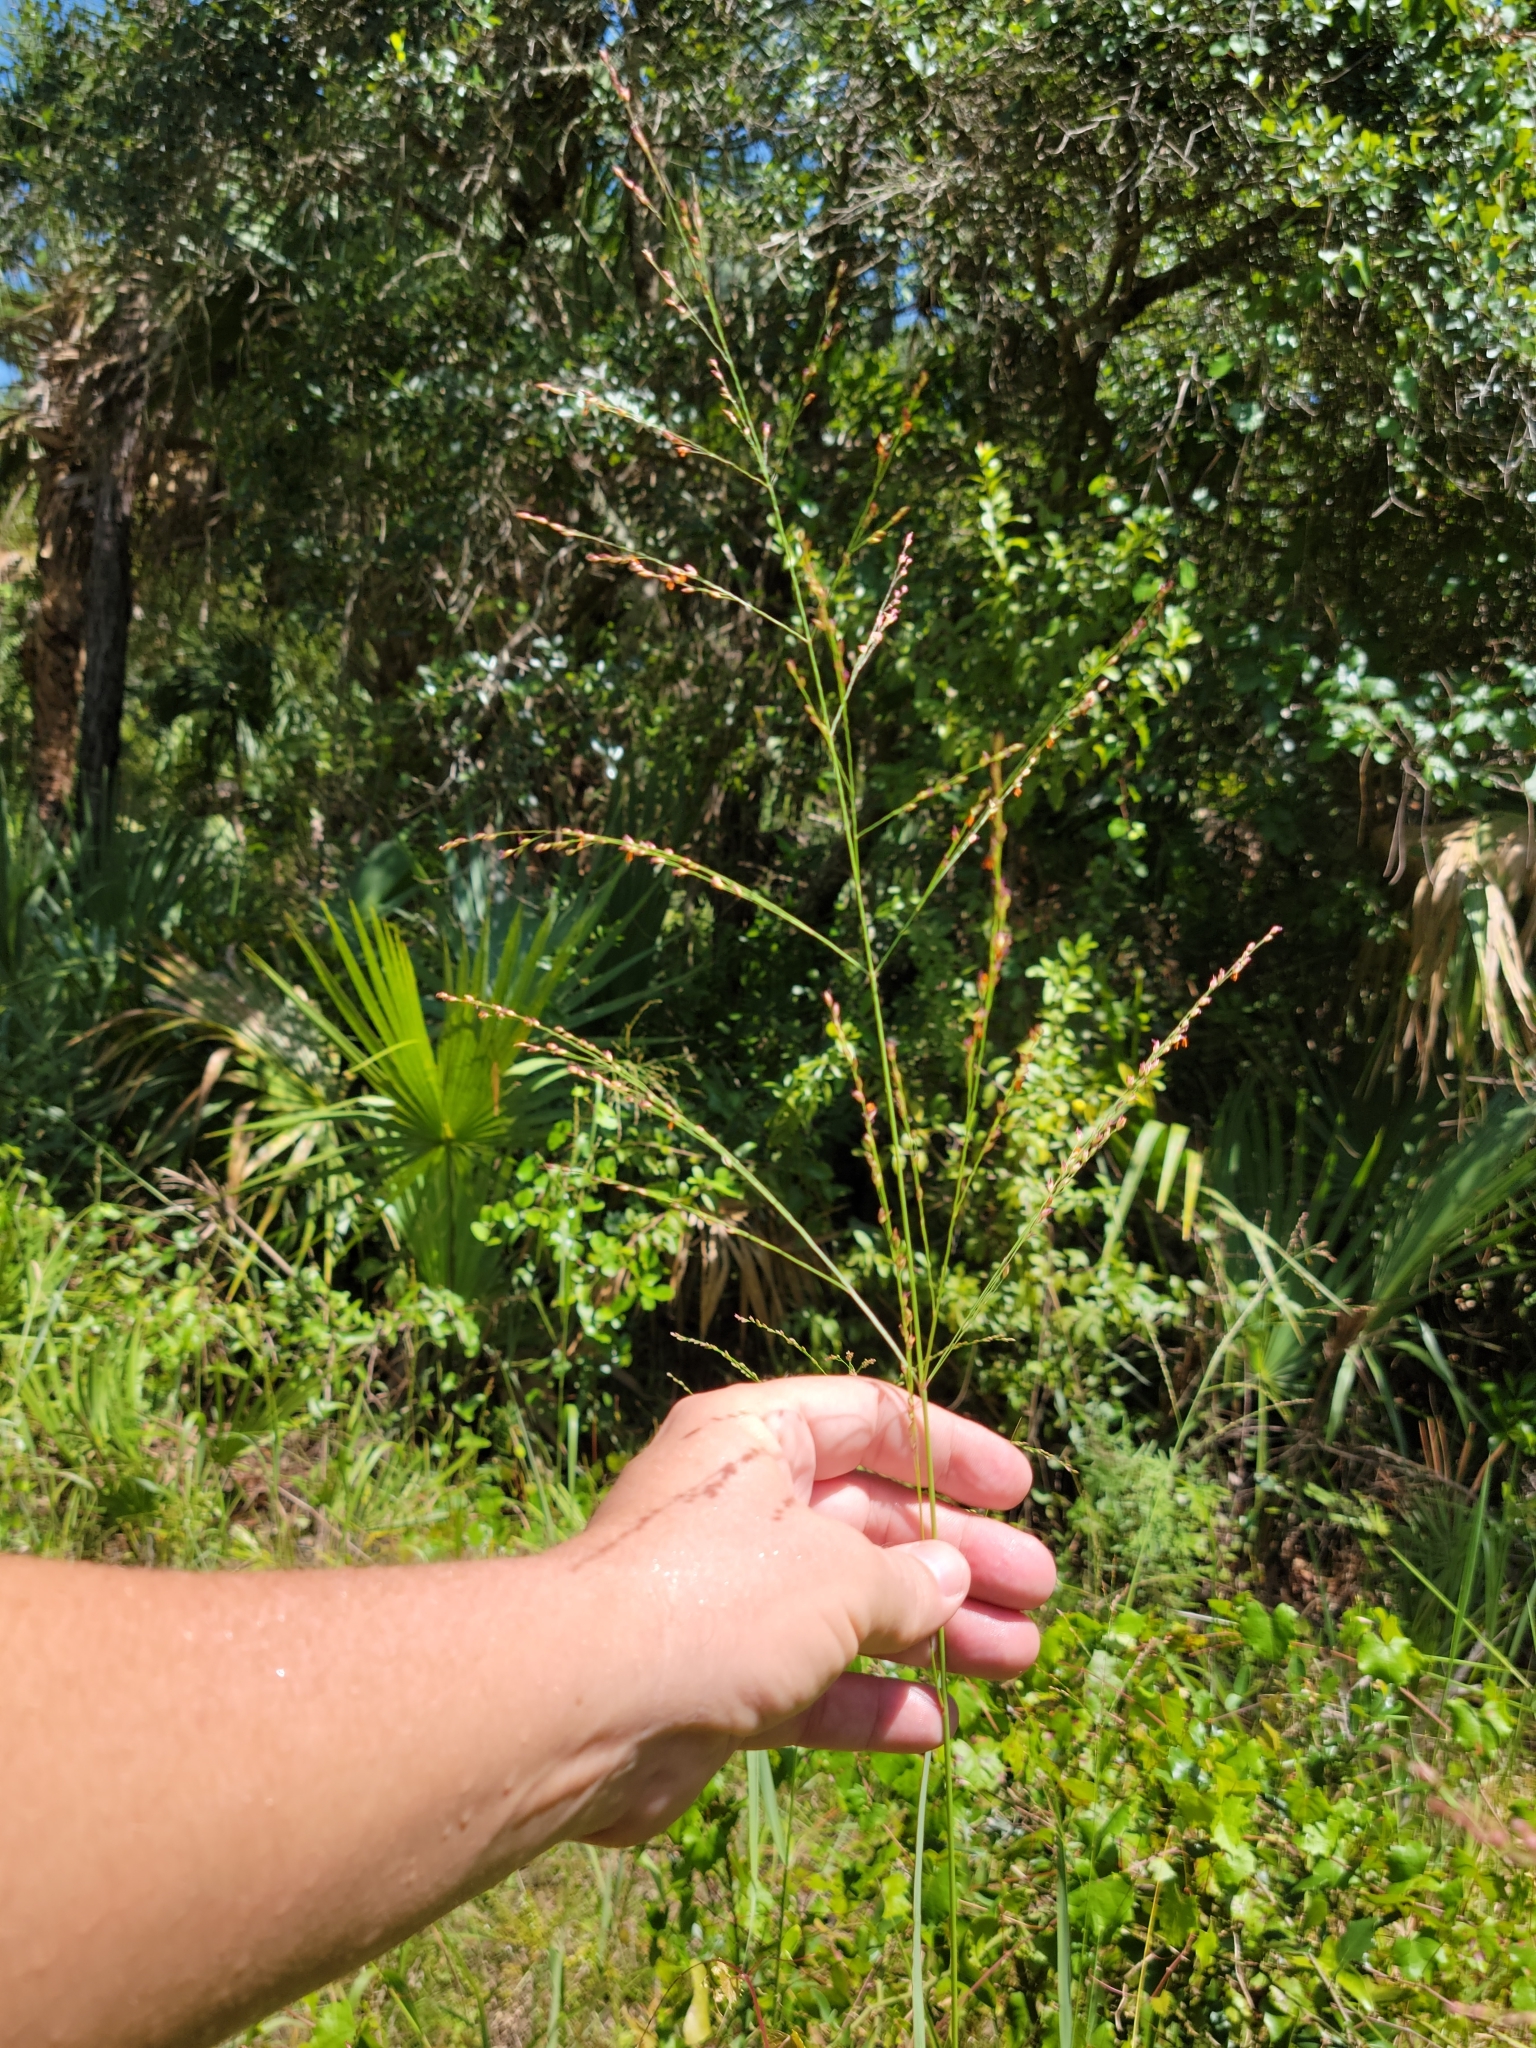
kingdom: Plantae
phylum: Tracheophyta
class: Liliopsida
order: Poales
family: Poaceae
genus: Panicum
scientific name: Panicum virgatum
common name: Switchgrass
